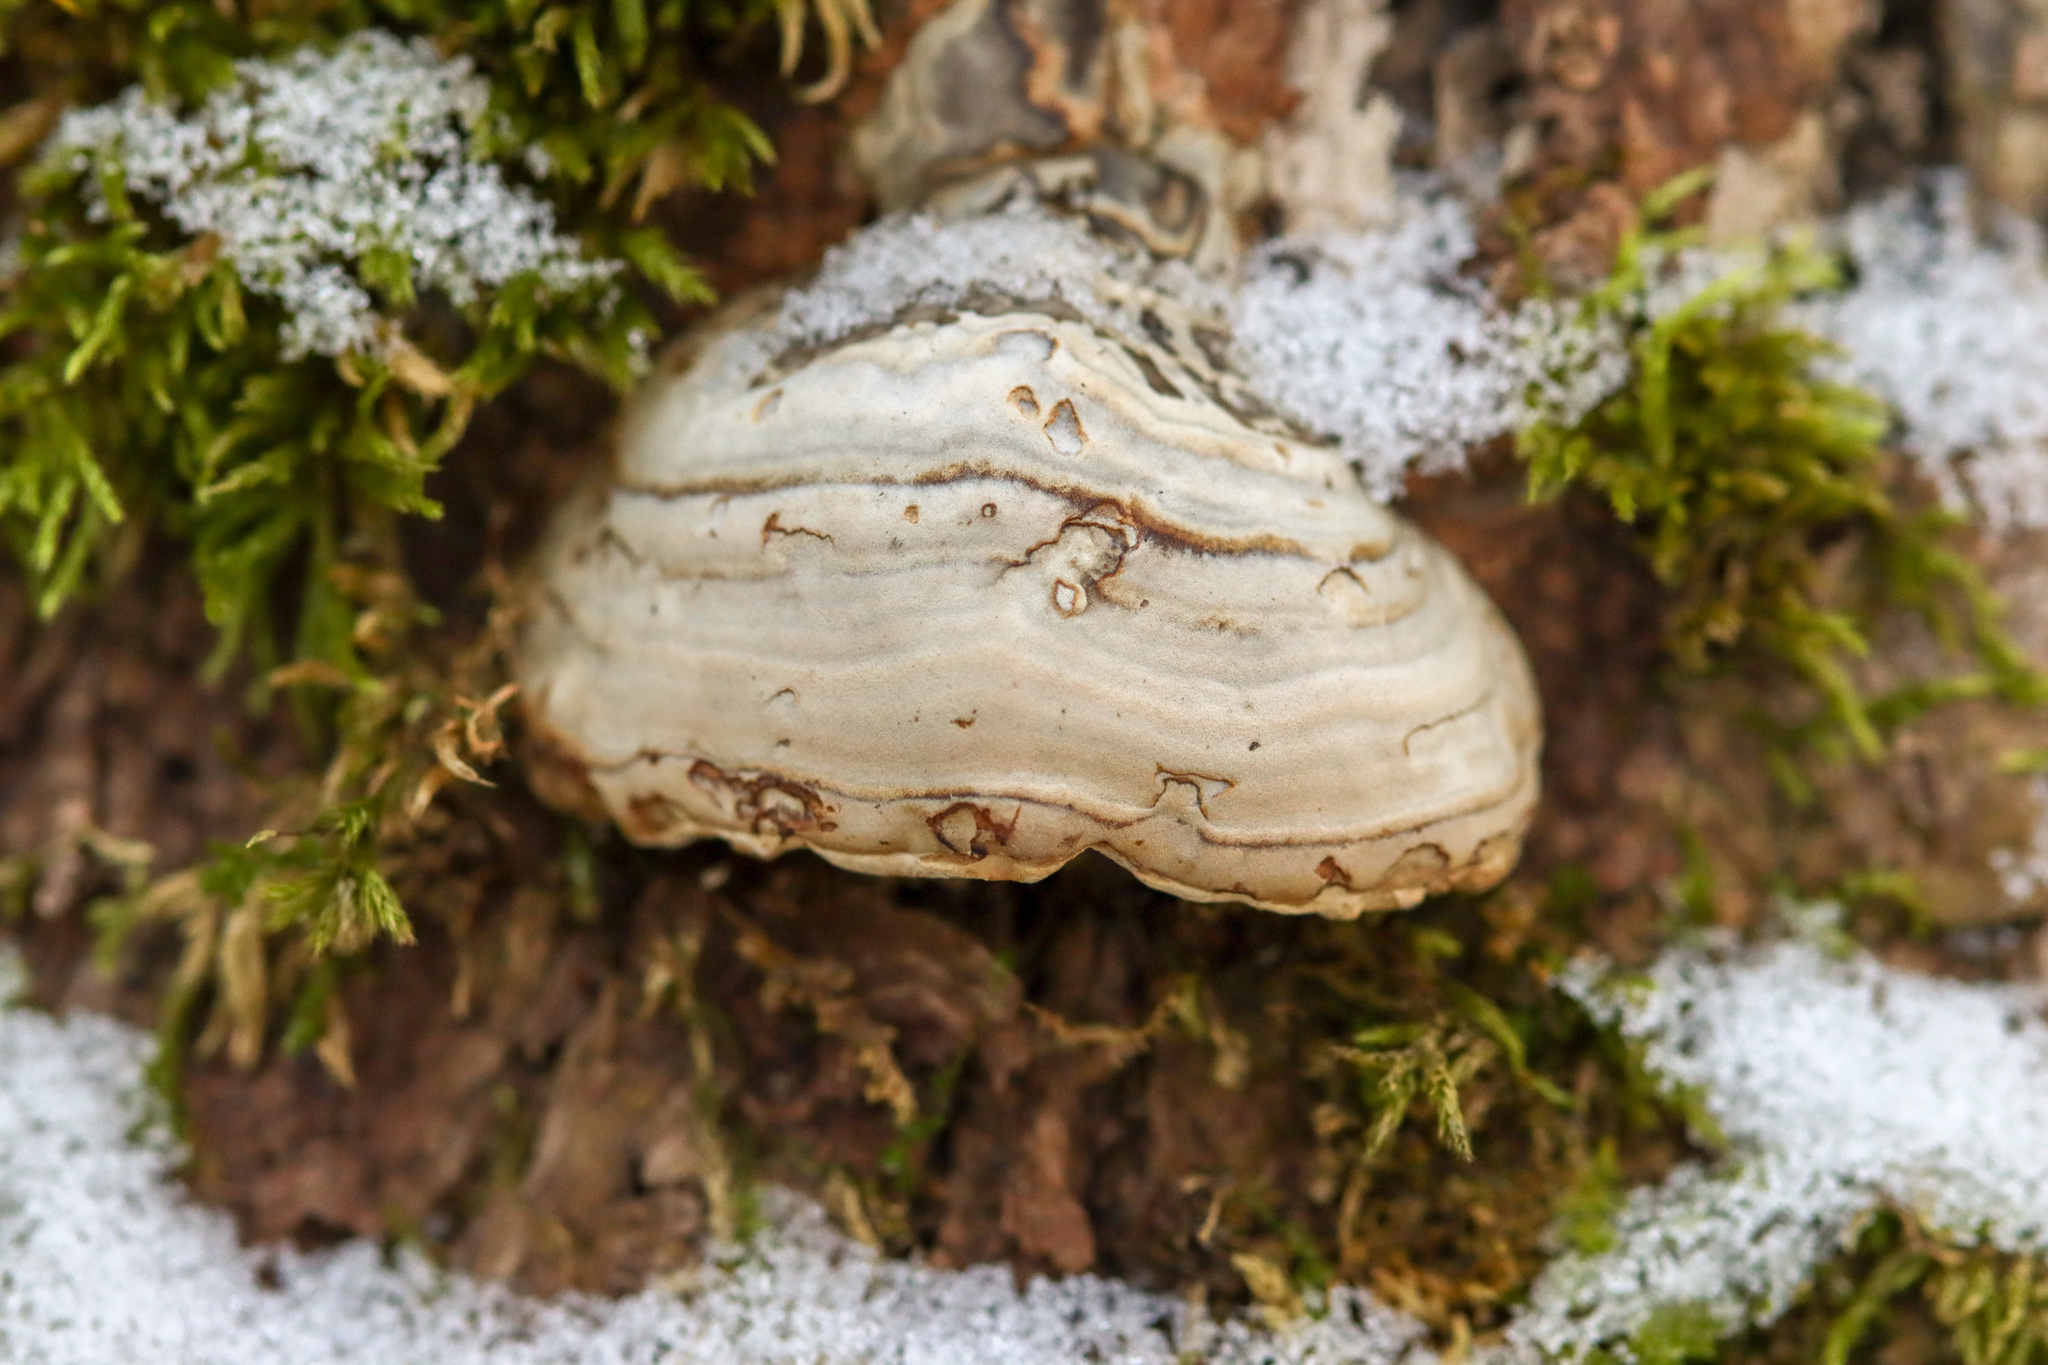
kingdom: Fungi
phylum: Basidiomycota
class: Agaricomycetes
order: Polyporales
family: Polyporaceae
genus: Fomes
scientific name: Fomes fomentarius
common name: Hoof fungus
